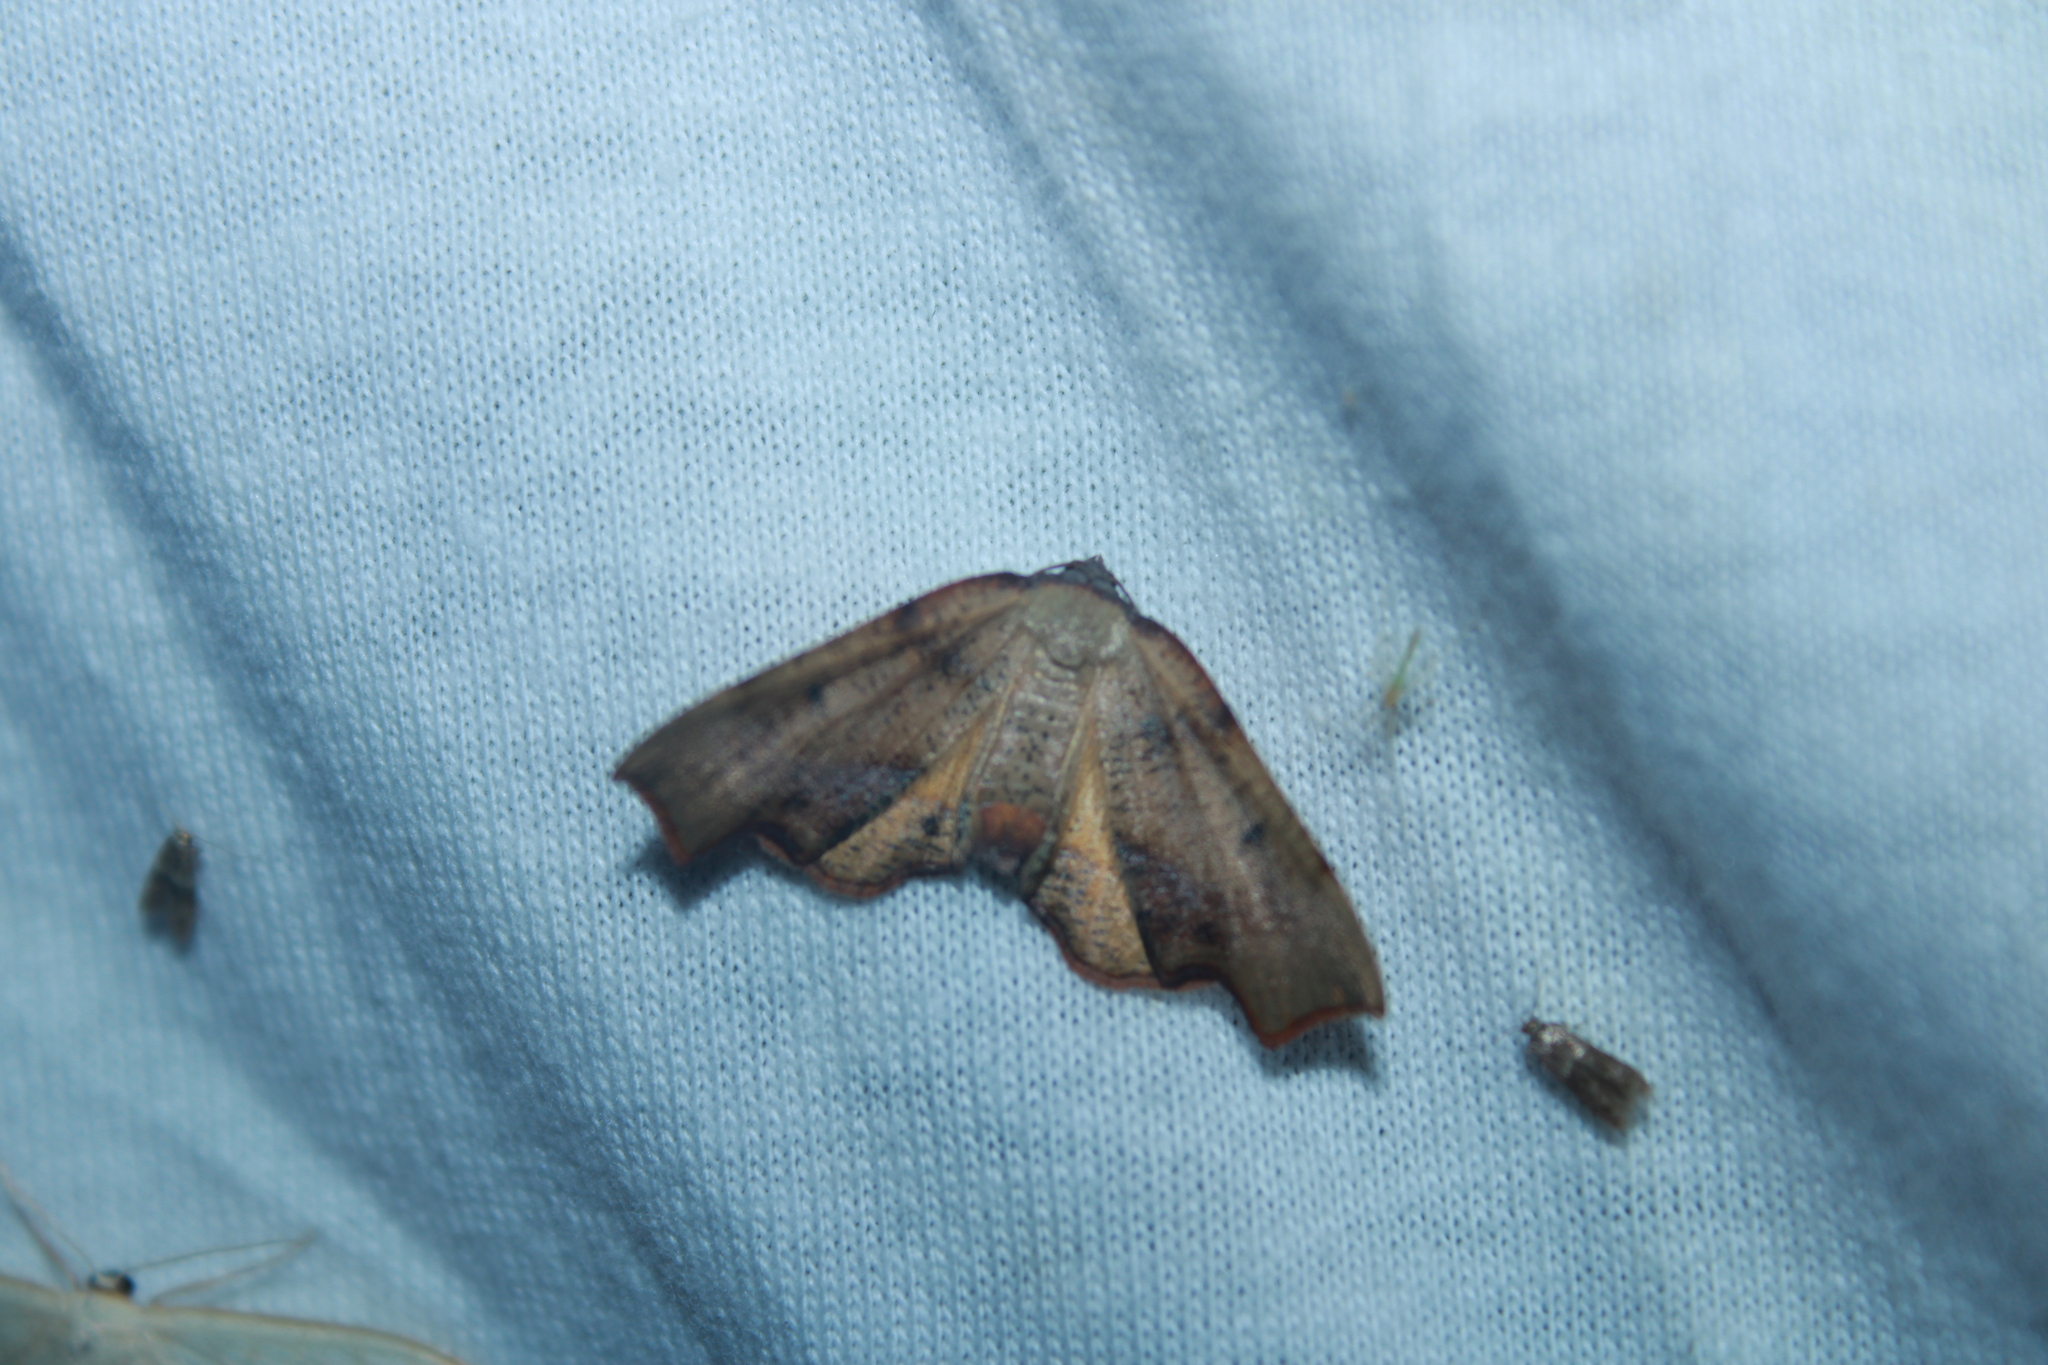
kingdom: Animalia
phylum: Arthropoda
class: Insecta
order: Lepidoptera
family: Geometridae
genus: Plagodis
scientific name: Plagodis fervidaria
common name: Fervid plagodis
